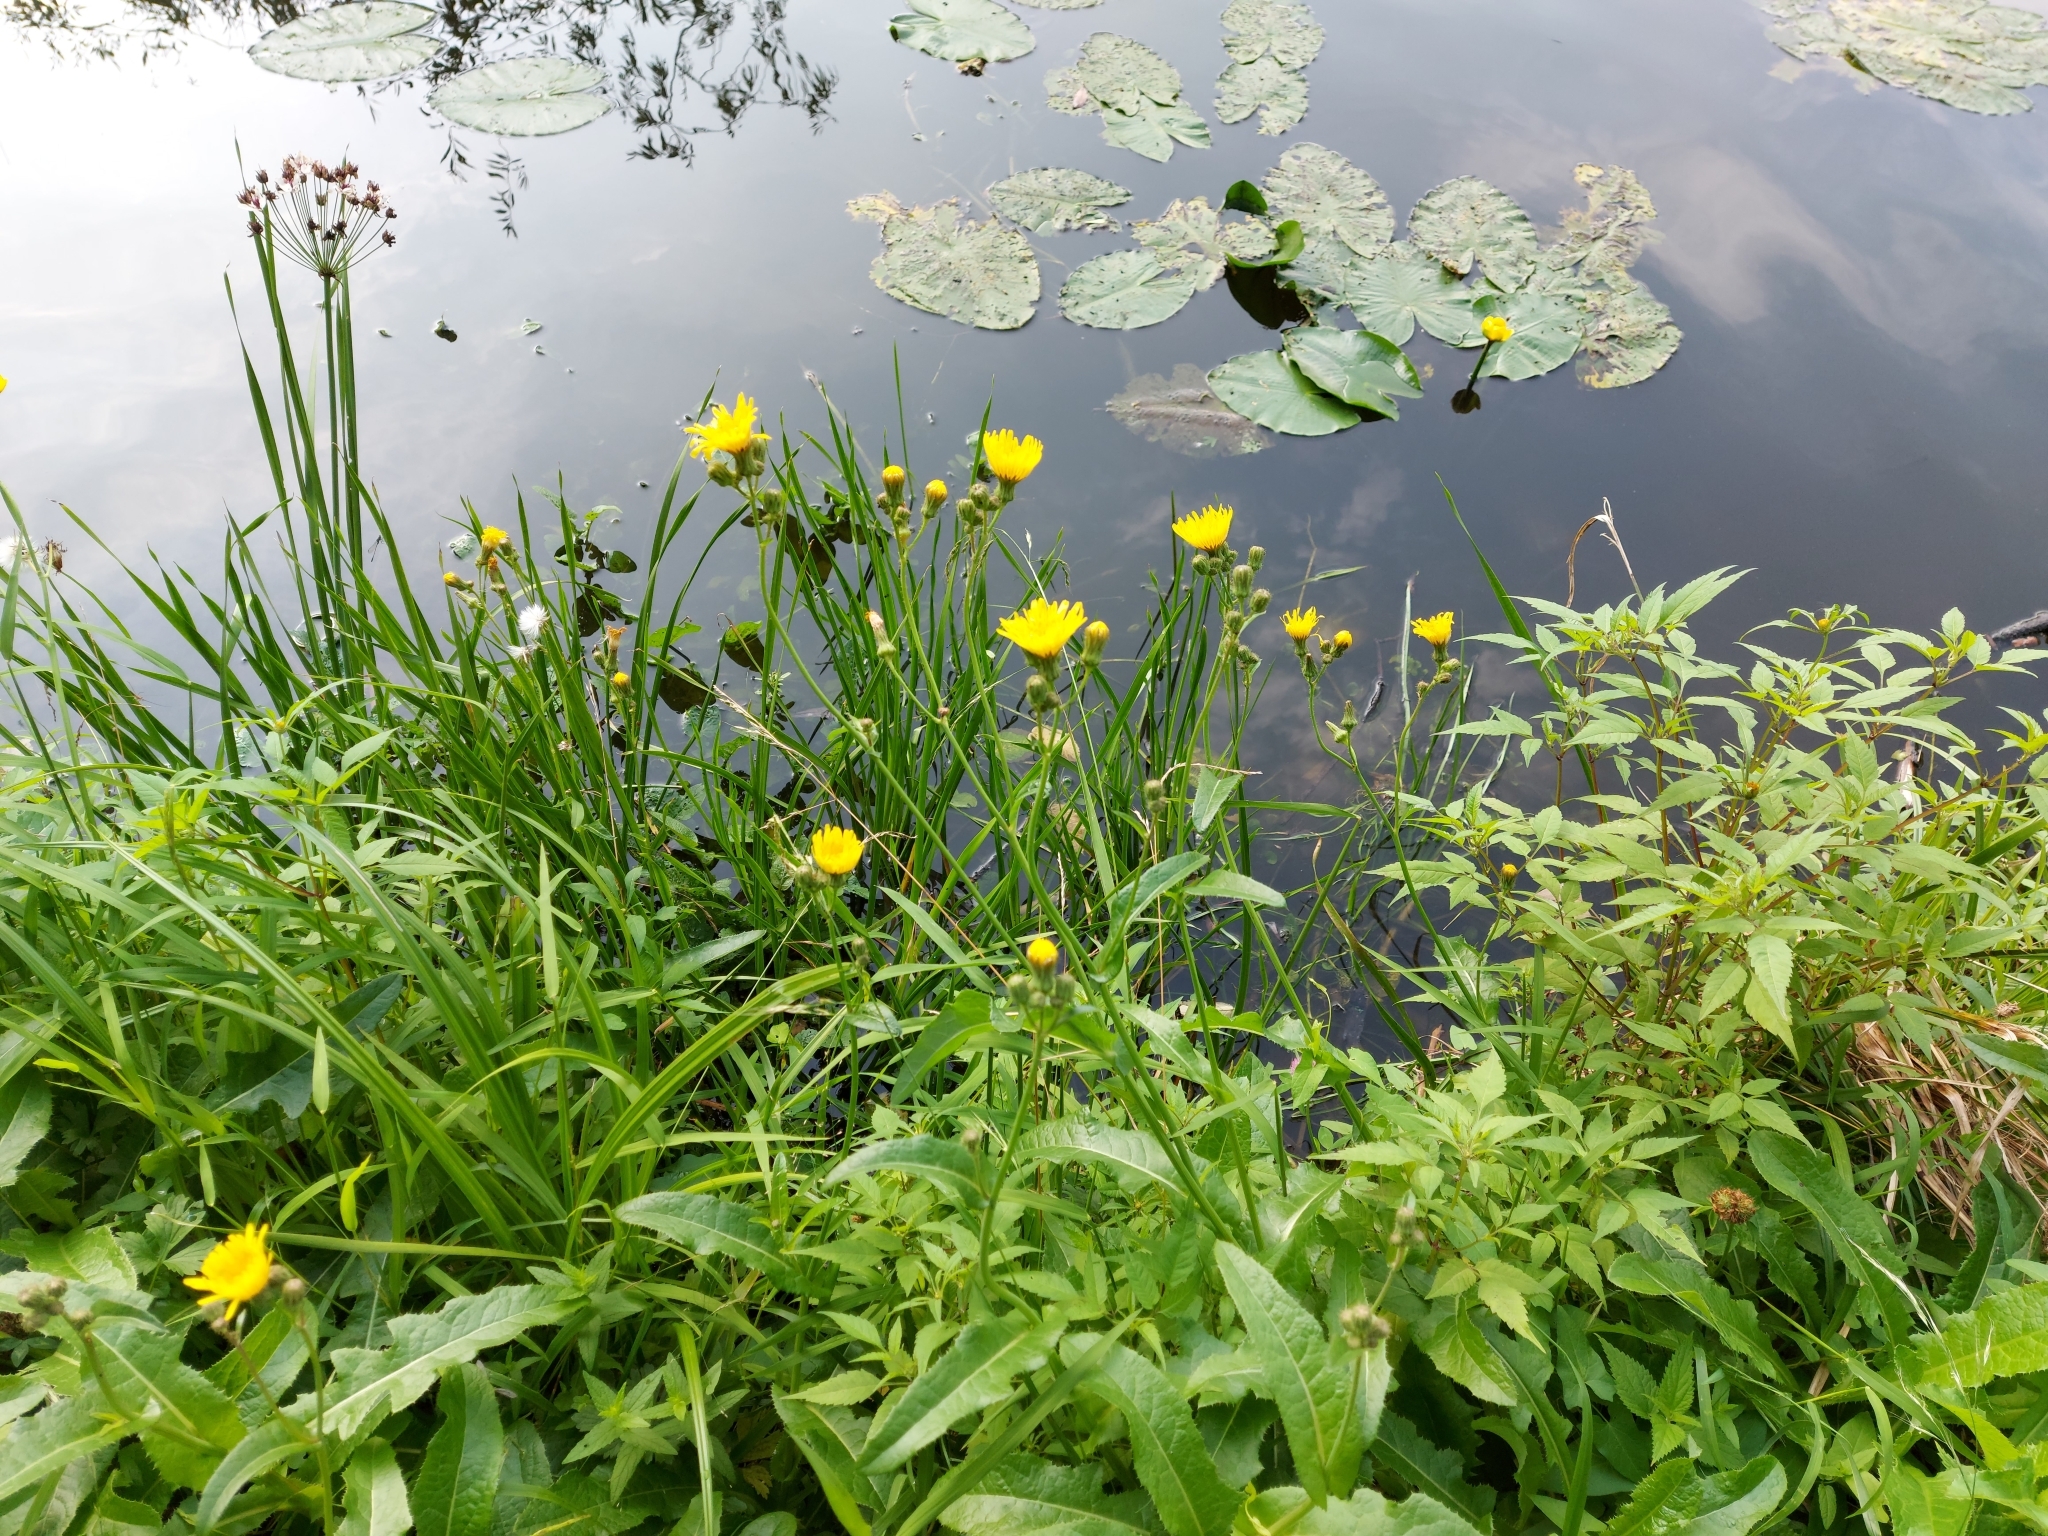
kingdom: Plantae
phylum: Tracheophyta
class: Magnoliopsida
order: Asterales
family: Asteraceae
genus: Sonchus
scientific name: Sonchus arvensis
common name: Perennial sow-thistle
